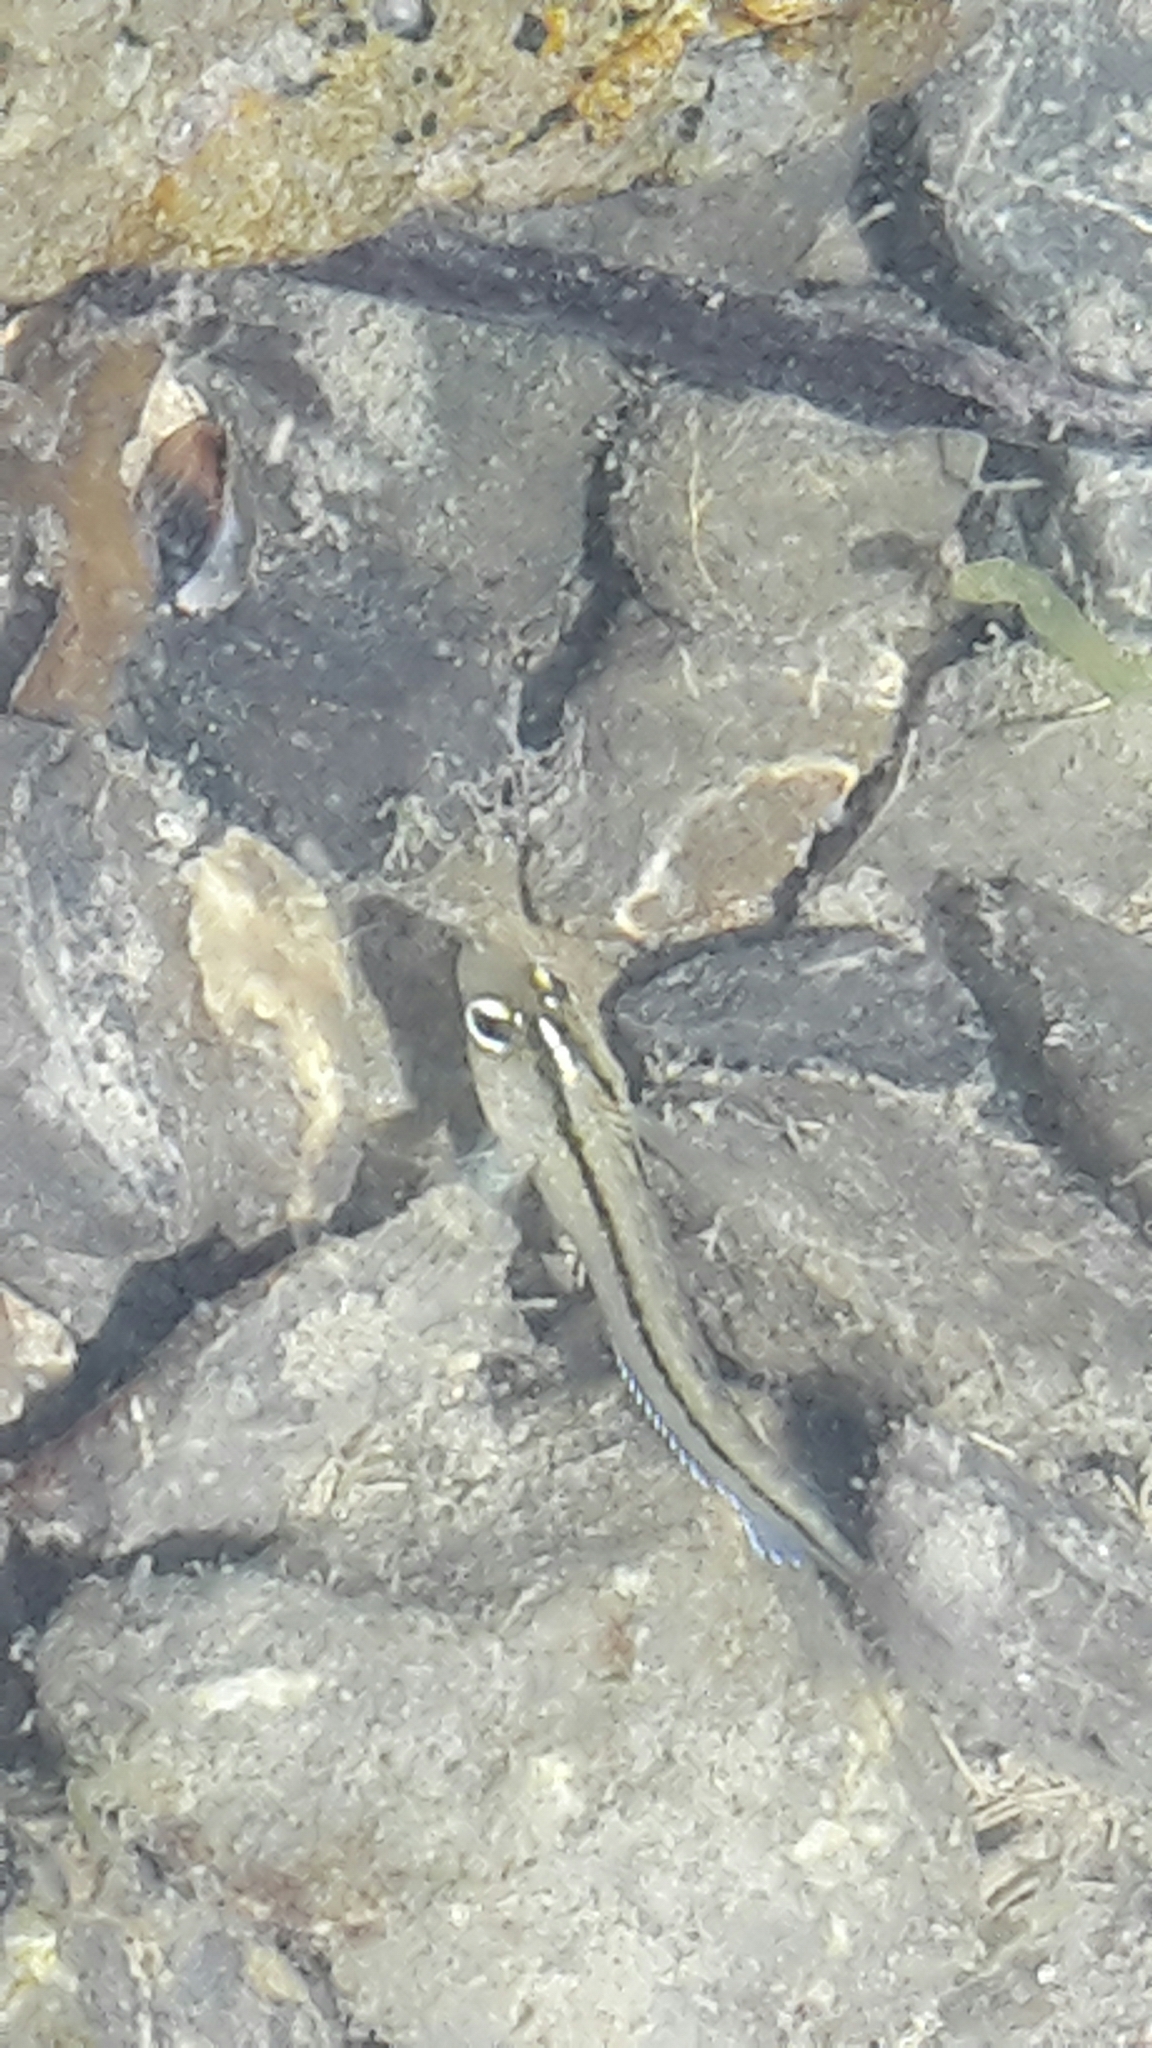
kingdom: Animalia
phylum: Chordata
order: Perciformes
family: Tripterygiidae
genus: Forsterygion
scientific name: Forsterygion lapillum
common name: Common triplefin
